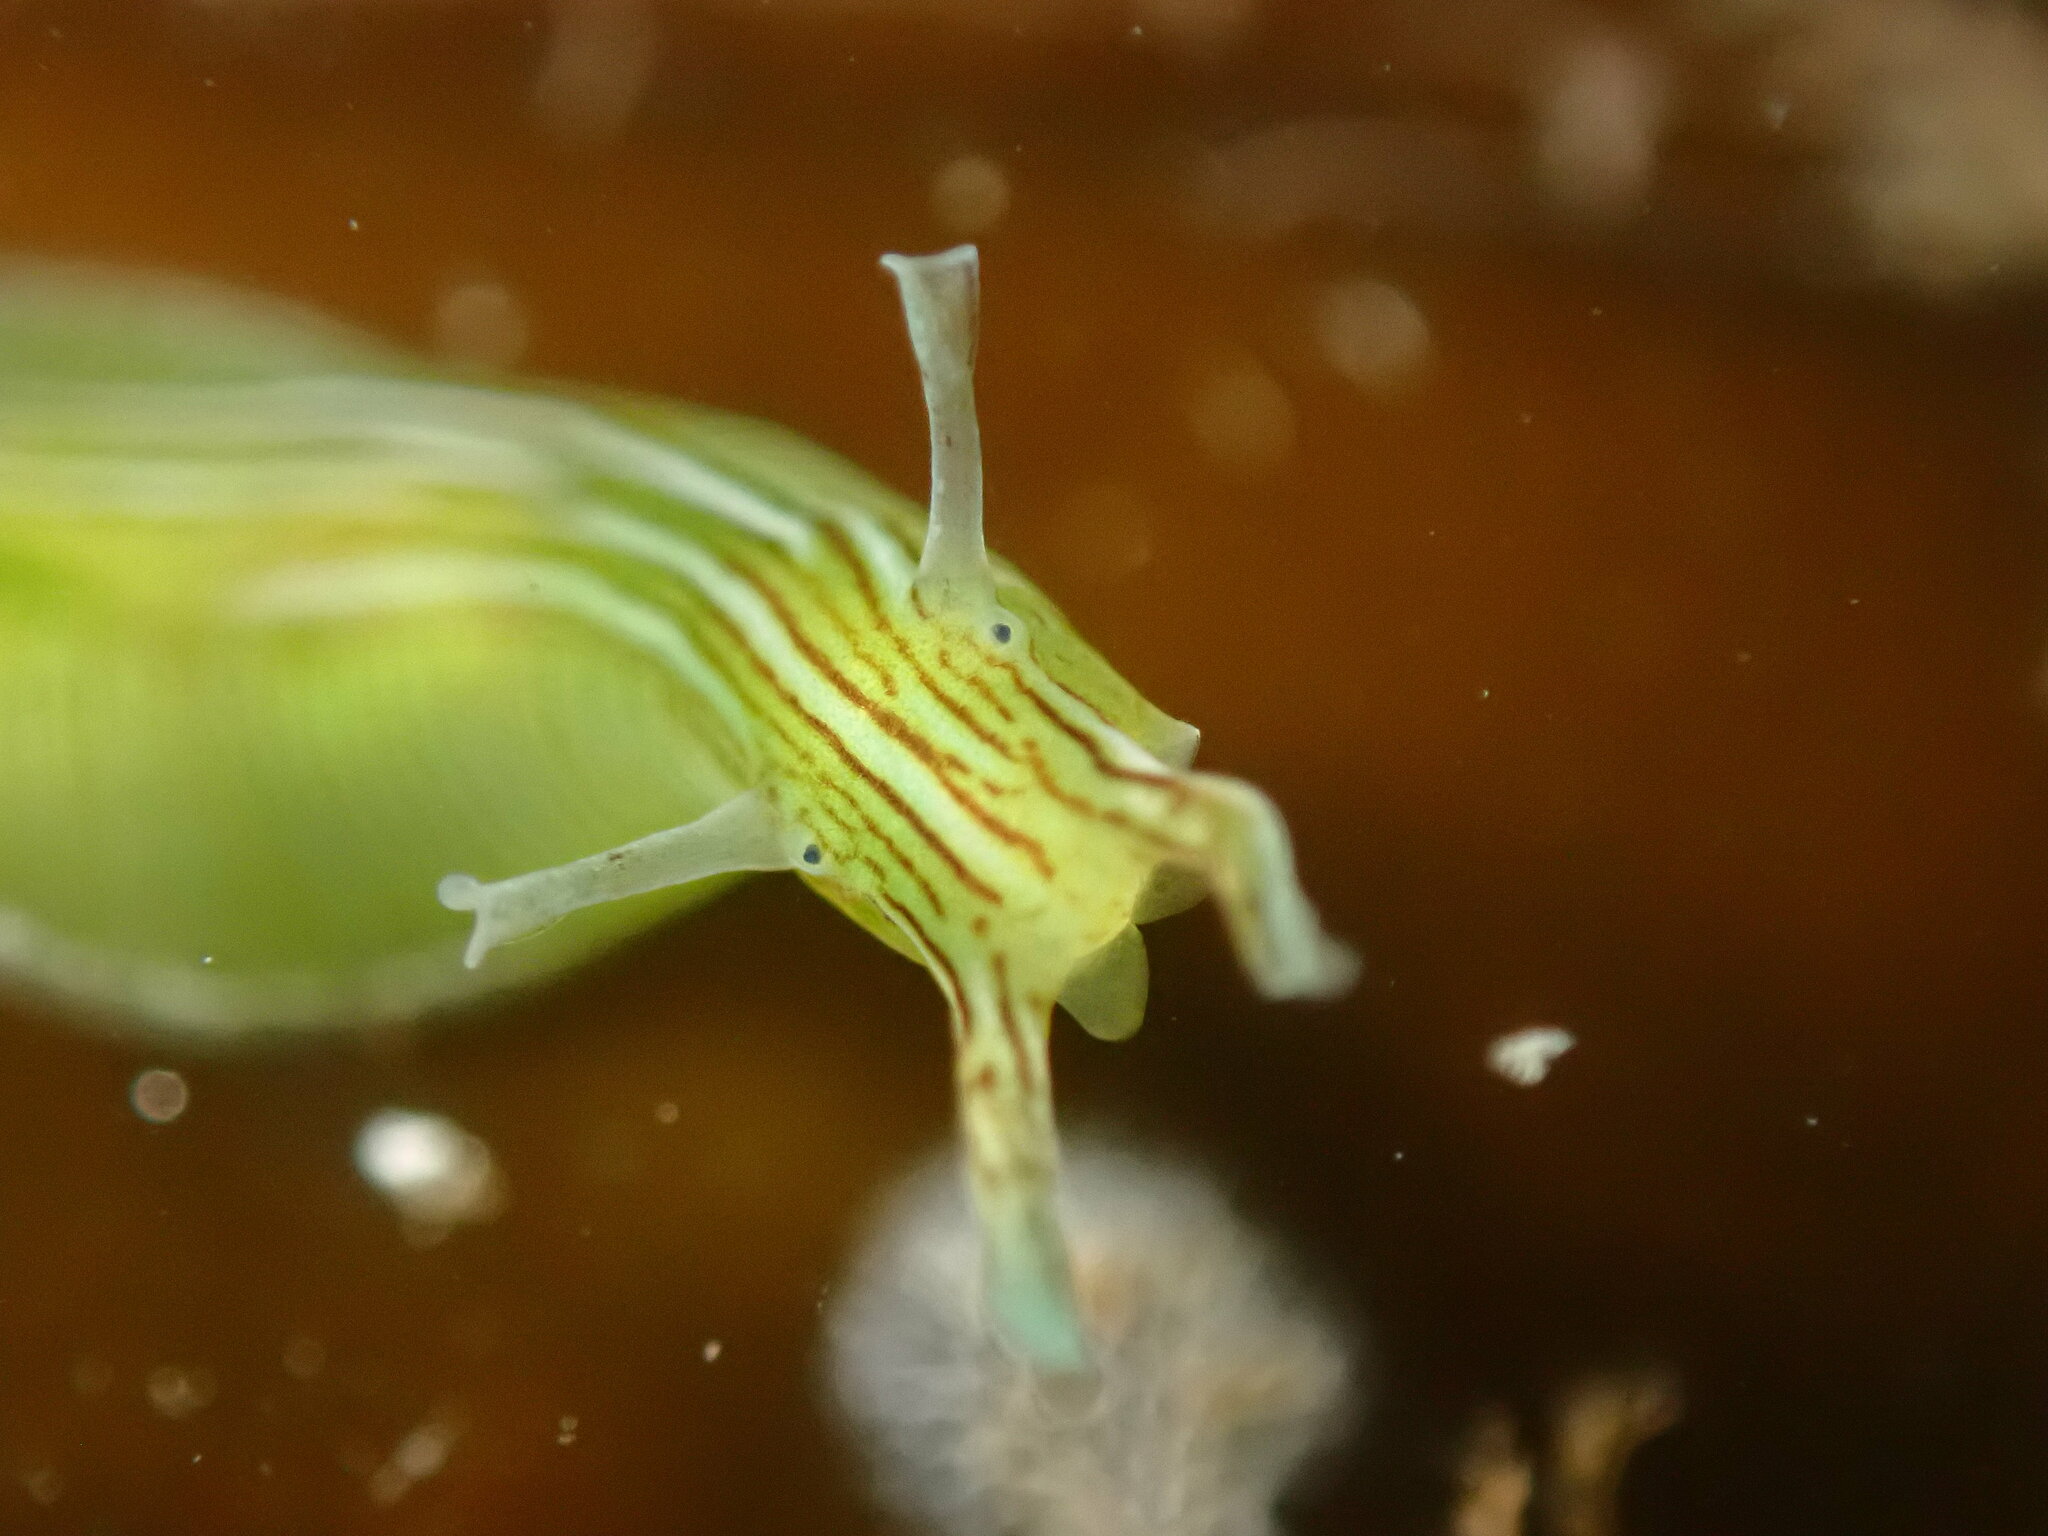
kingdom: Animalia
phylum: Mollusca
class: Gastropoda
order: Aplysiida
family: Aplysiidae
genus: Phyllaplysia
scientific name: Phyllaplysia taylori
